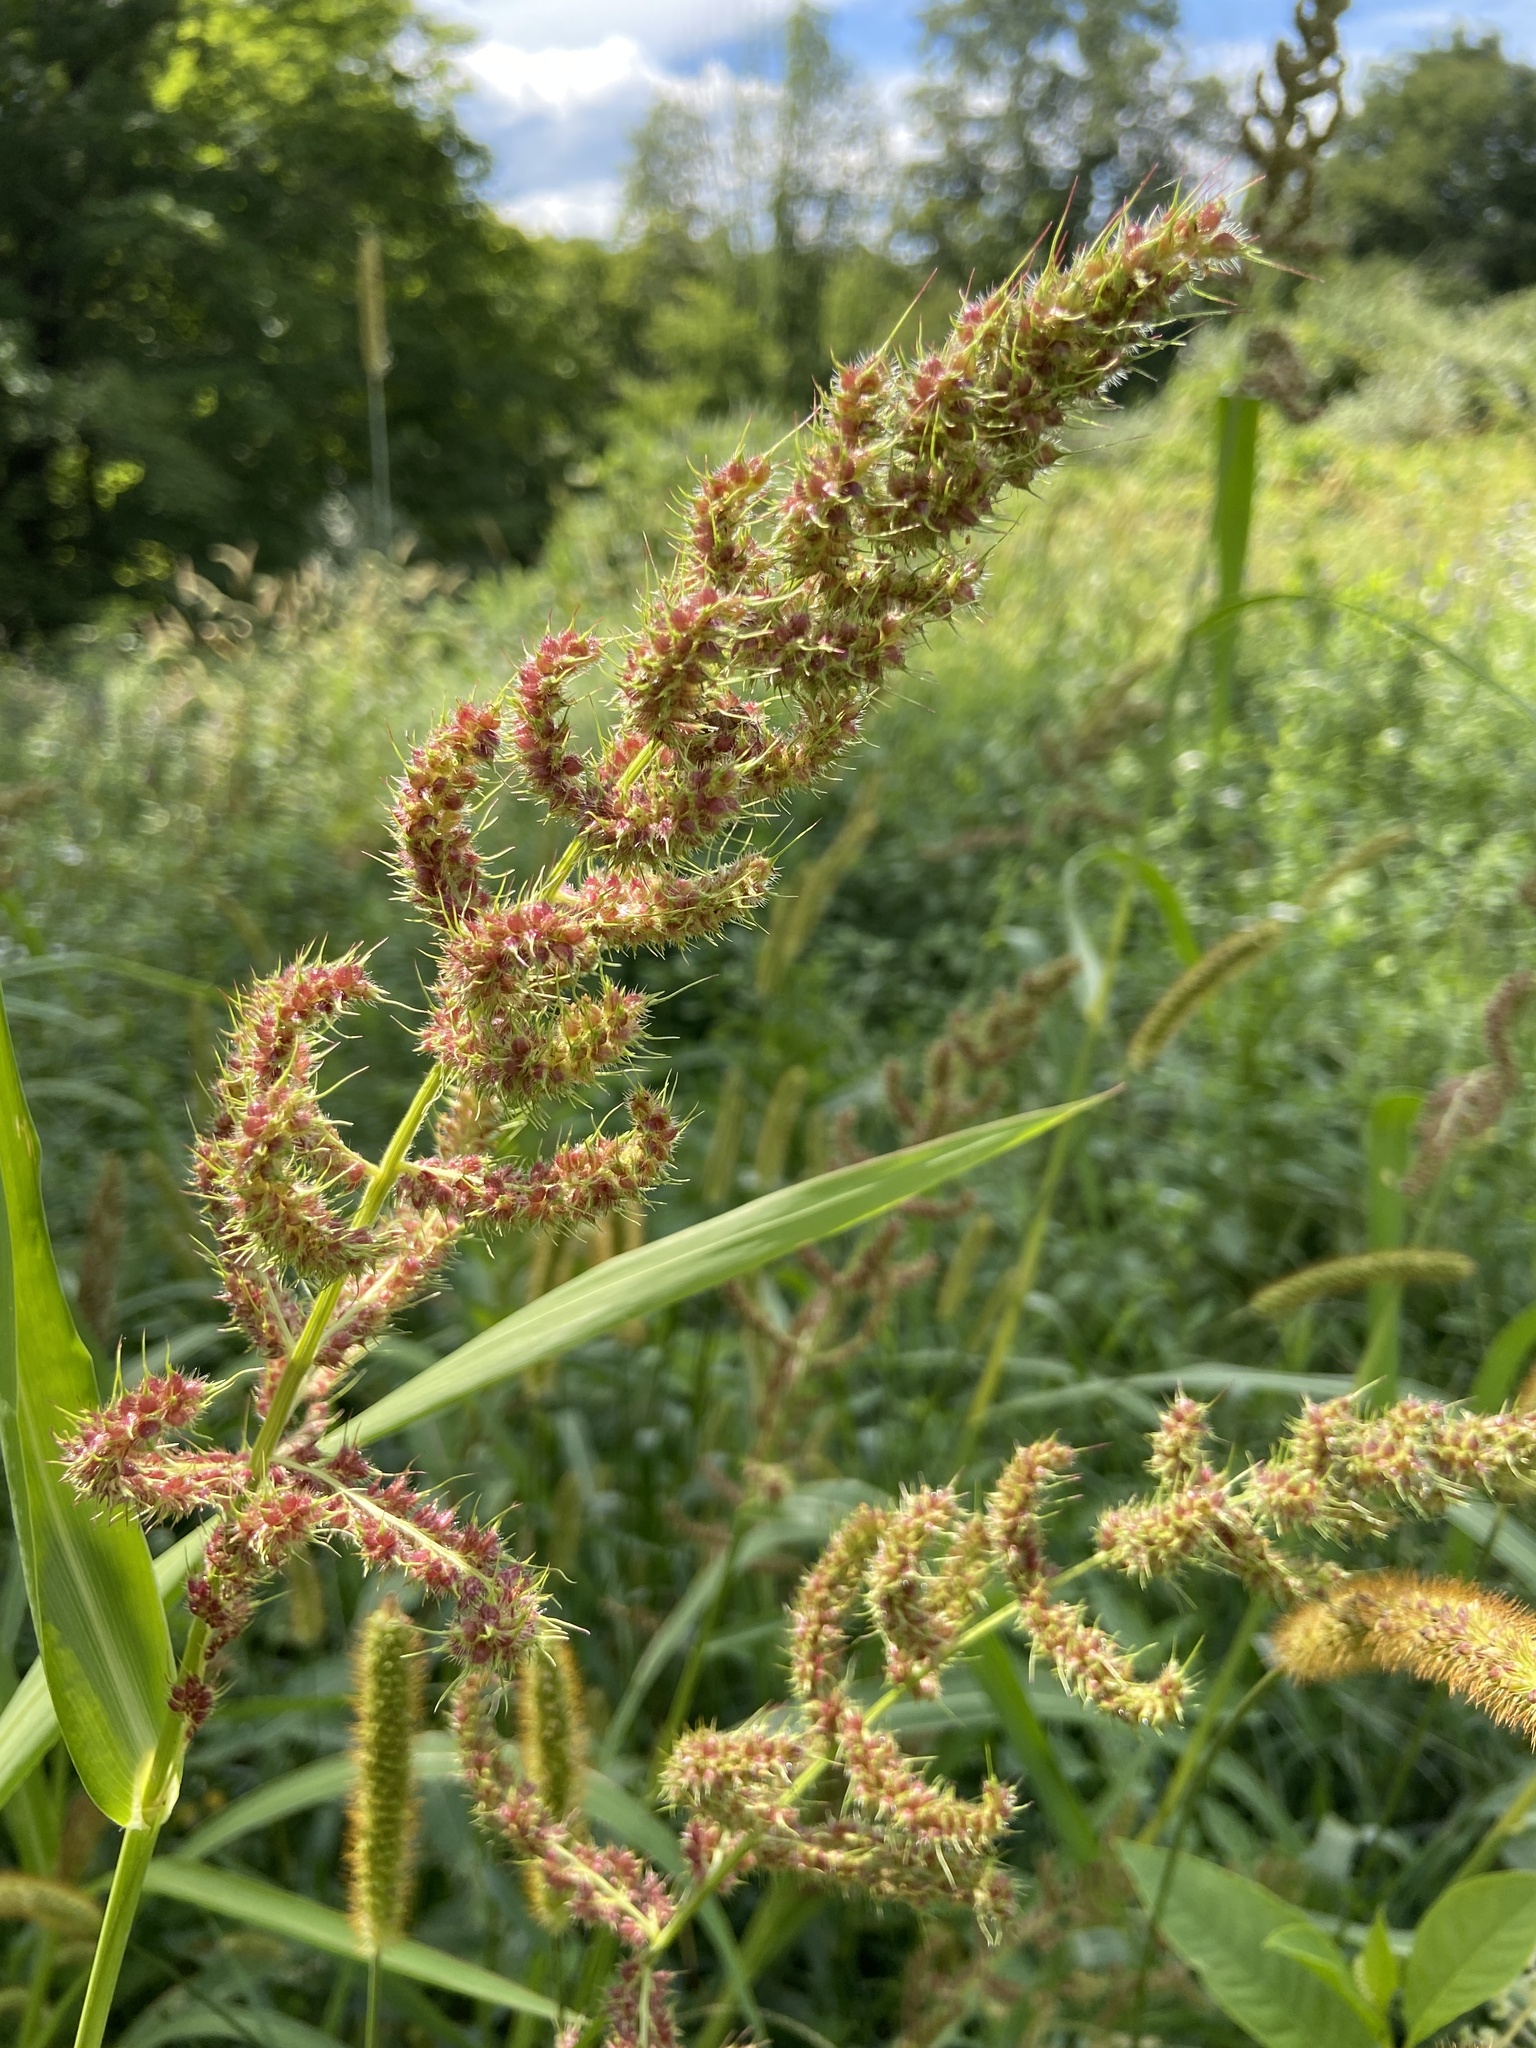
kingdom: Plantae
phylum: Tracheophyta
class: Liliopsida
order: Poales
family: Poaceae
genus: Echinochloa
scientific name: Echinochloa crus-galli
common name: Cockspur
